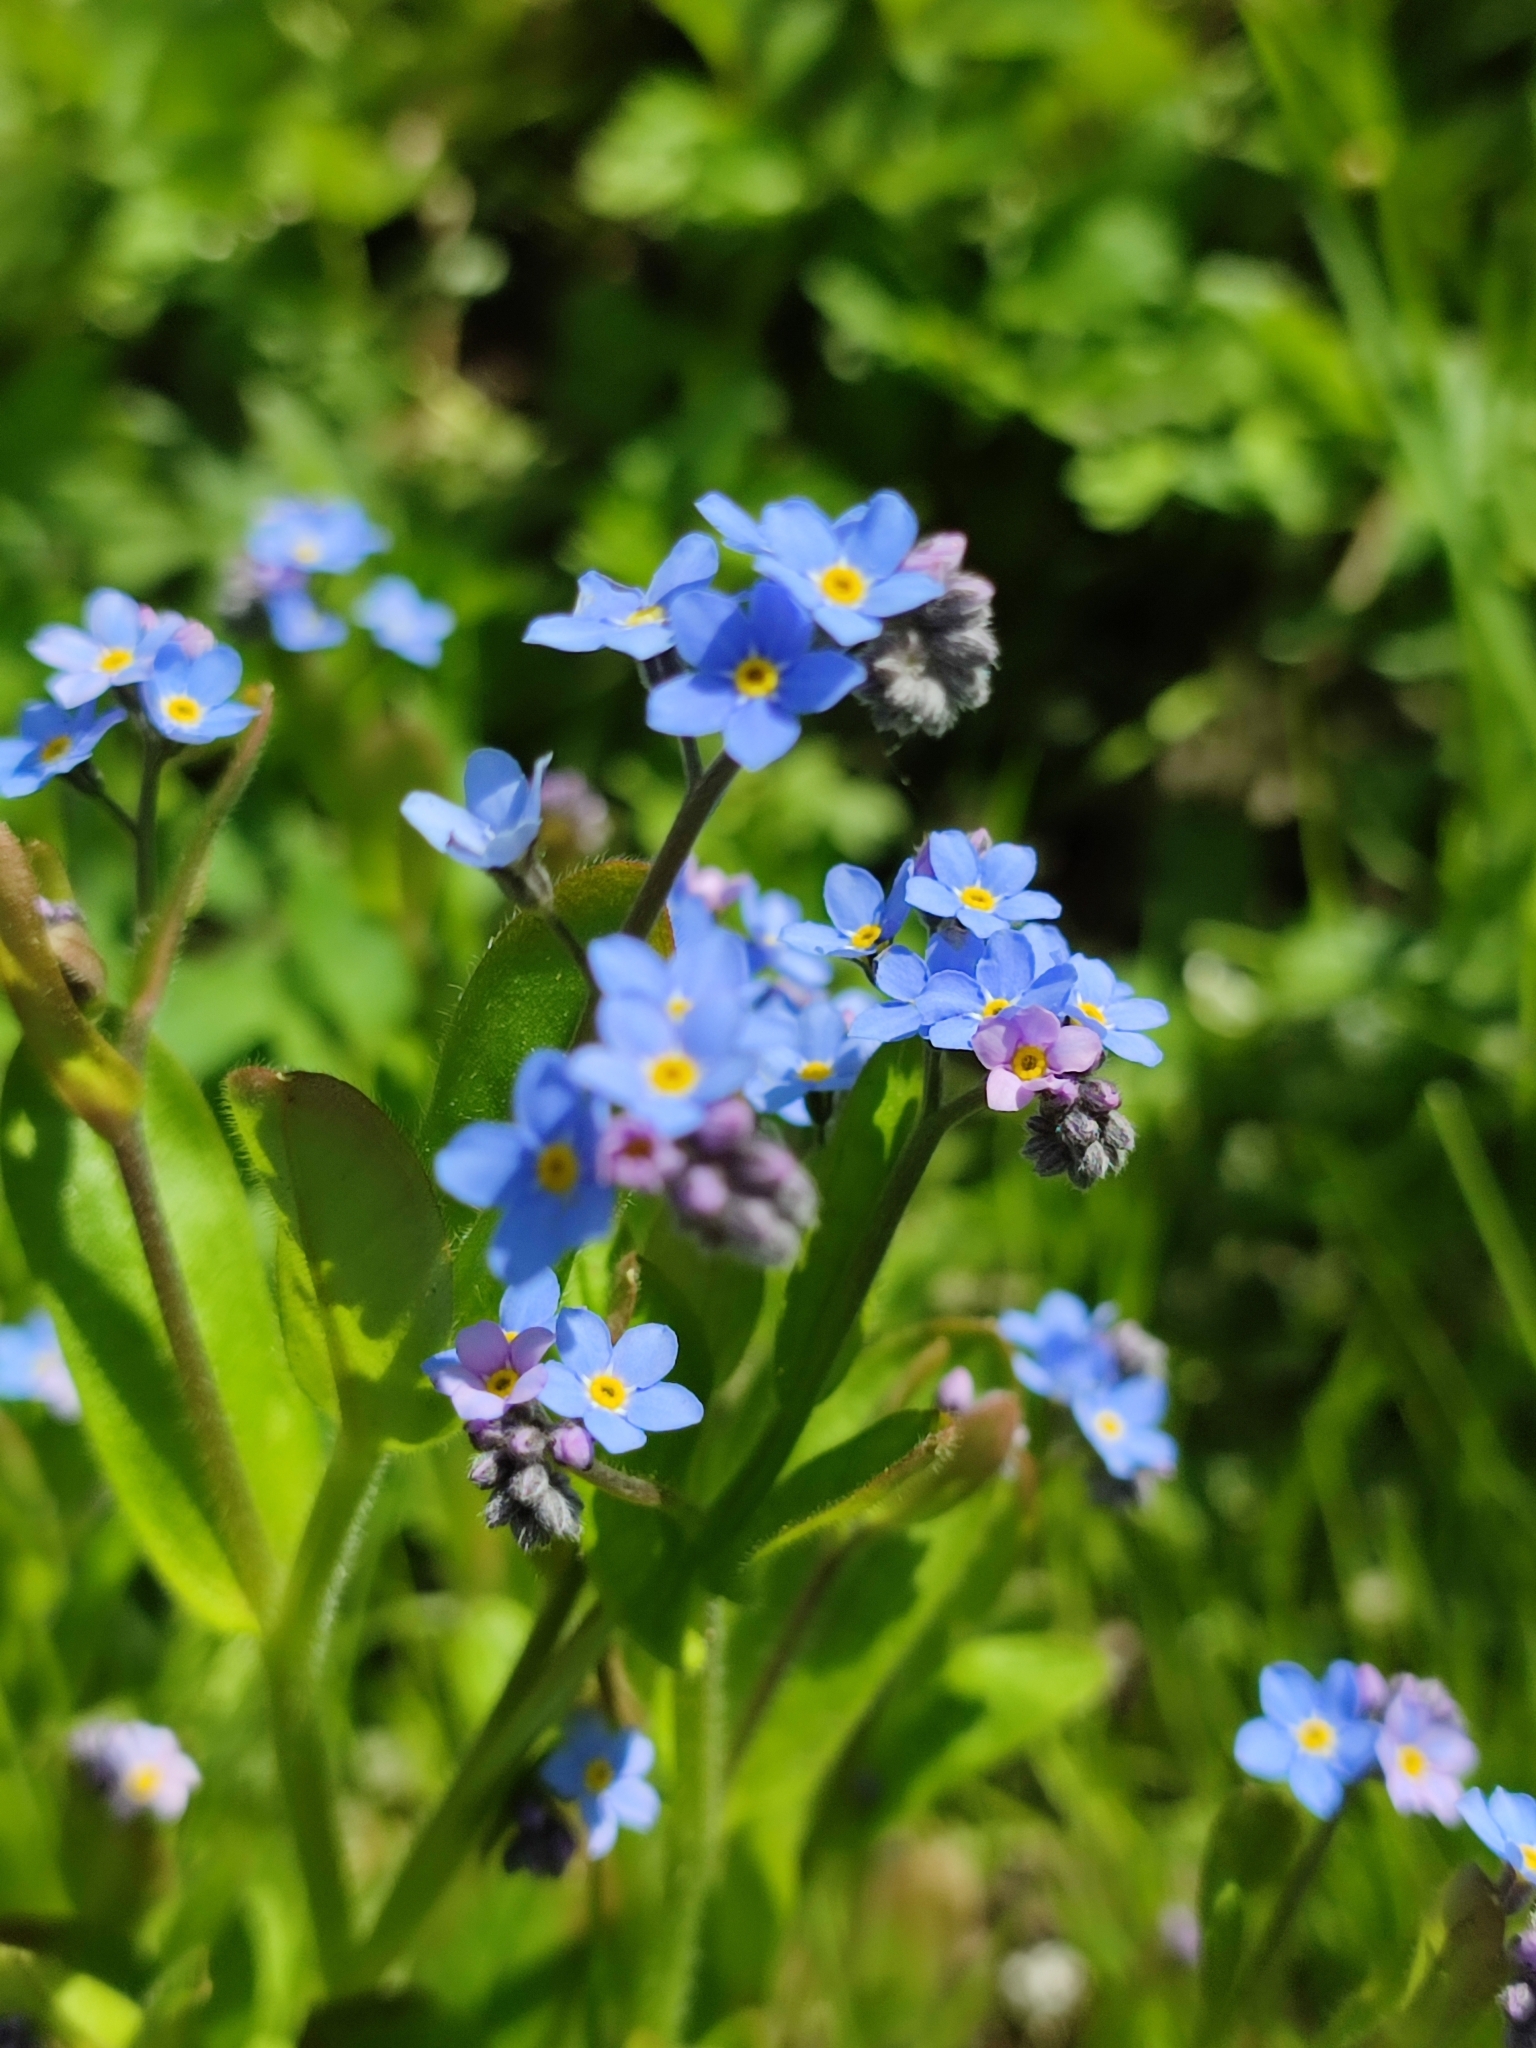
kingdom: Plantae
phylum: Tracheophyta
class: Magnoliopsida
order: Boraginales
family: Boraginaceae
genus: Myosotis
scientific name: Myosotis sylvatica
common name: Wood forget-me-not
